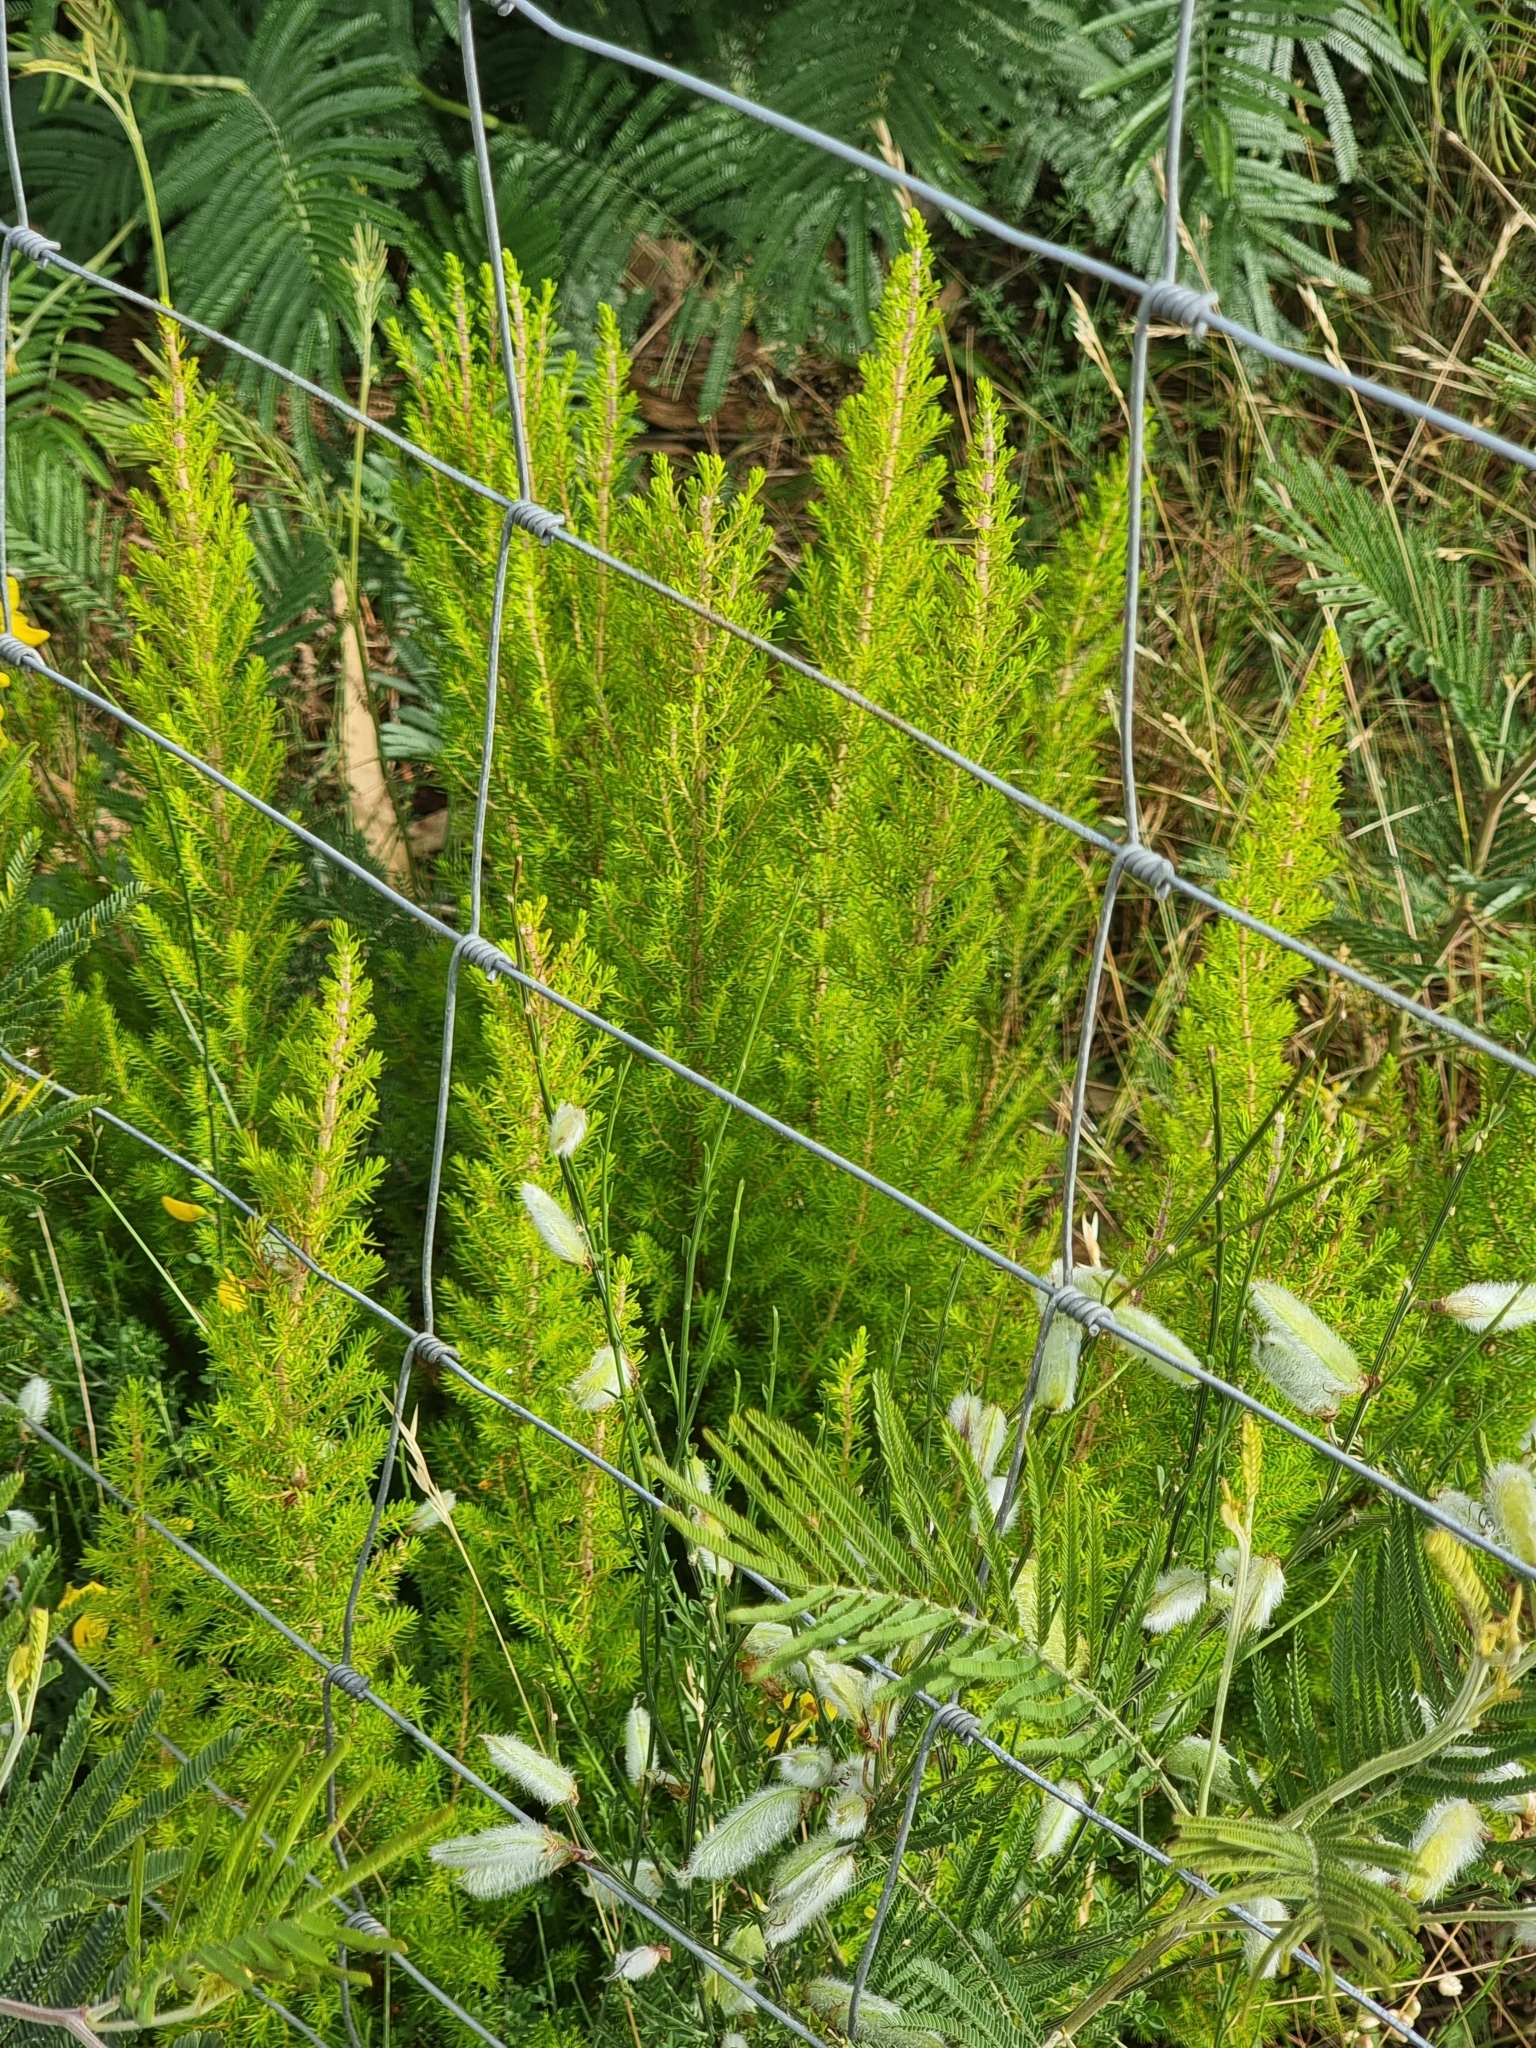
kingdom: Plantae
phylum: Tracheophyta
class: Magnoliopsida
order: Ericales
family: Ericaceae
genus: Erica
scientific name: Erica canariensis
